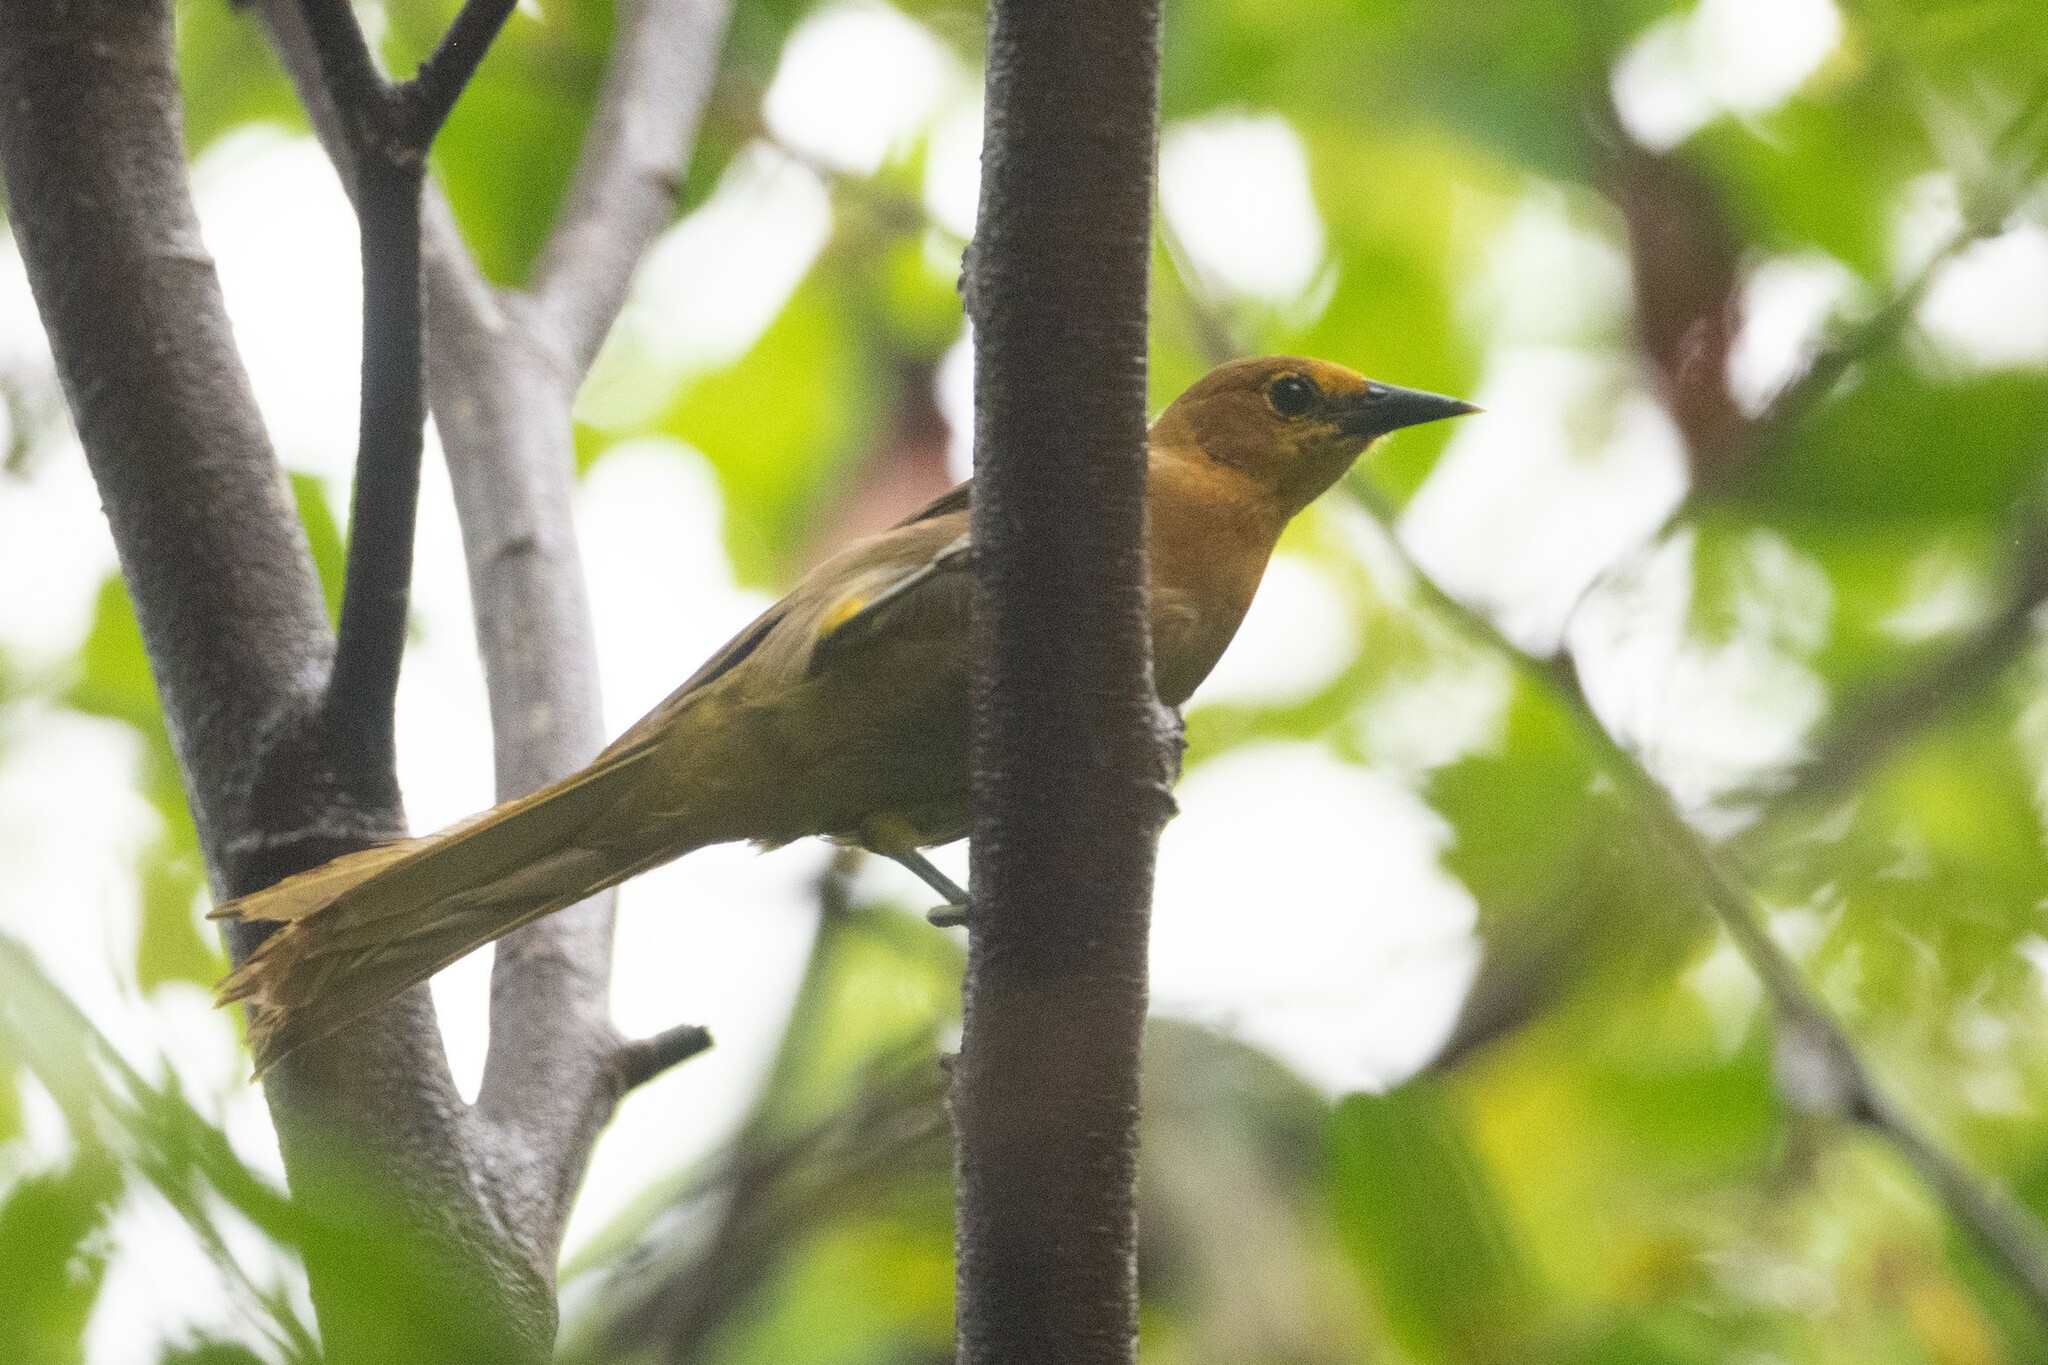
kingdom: Animalia
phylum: Chordata
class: Aves
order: Passeriformes
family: Icteridae
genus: Icterus
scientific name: Icterus portoricensis
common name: Puerto rican oriole
